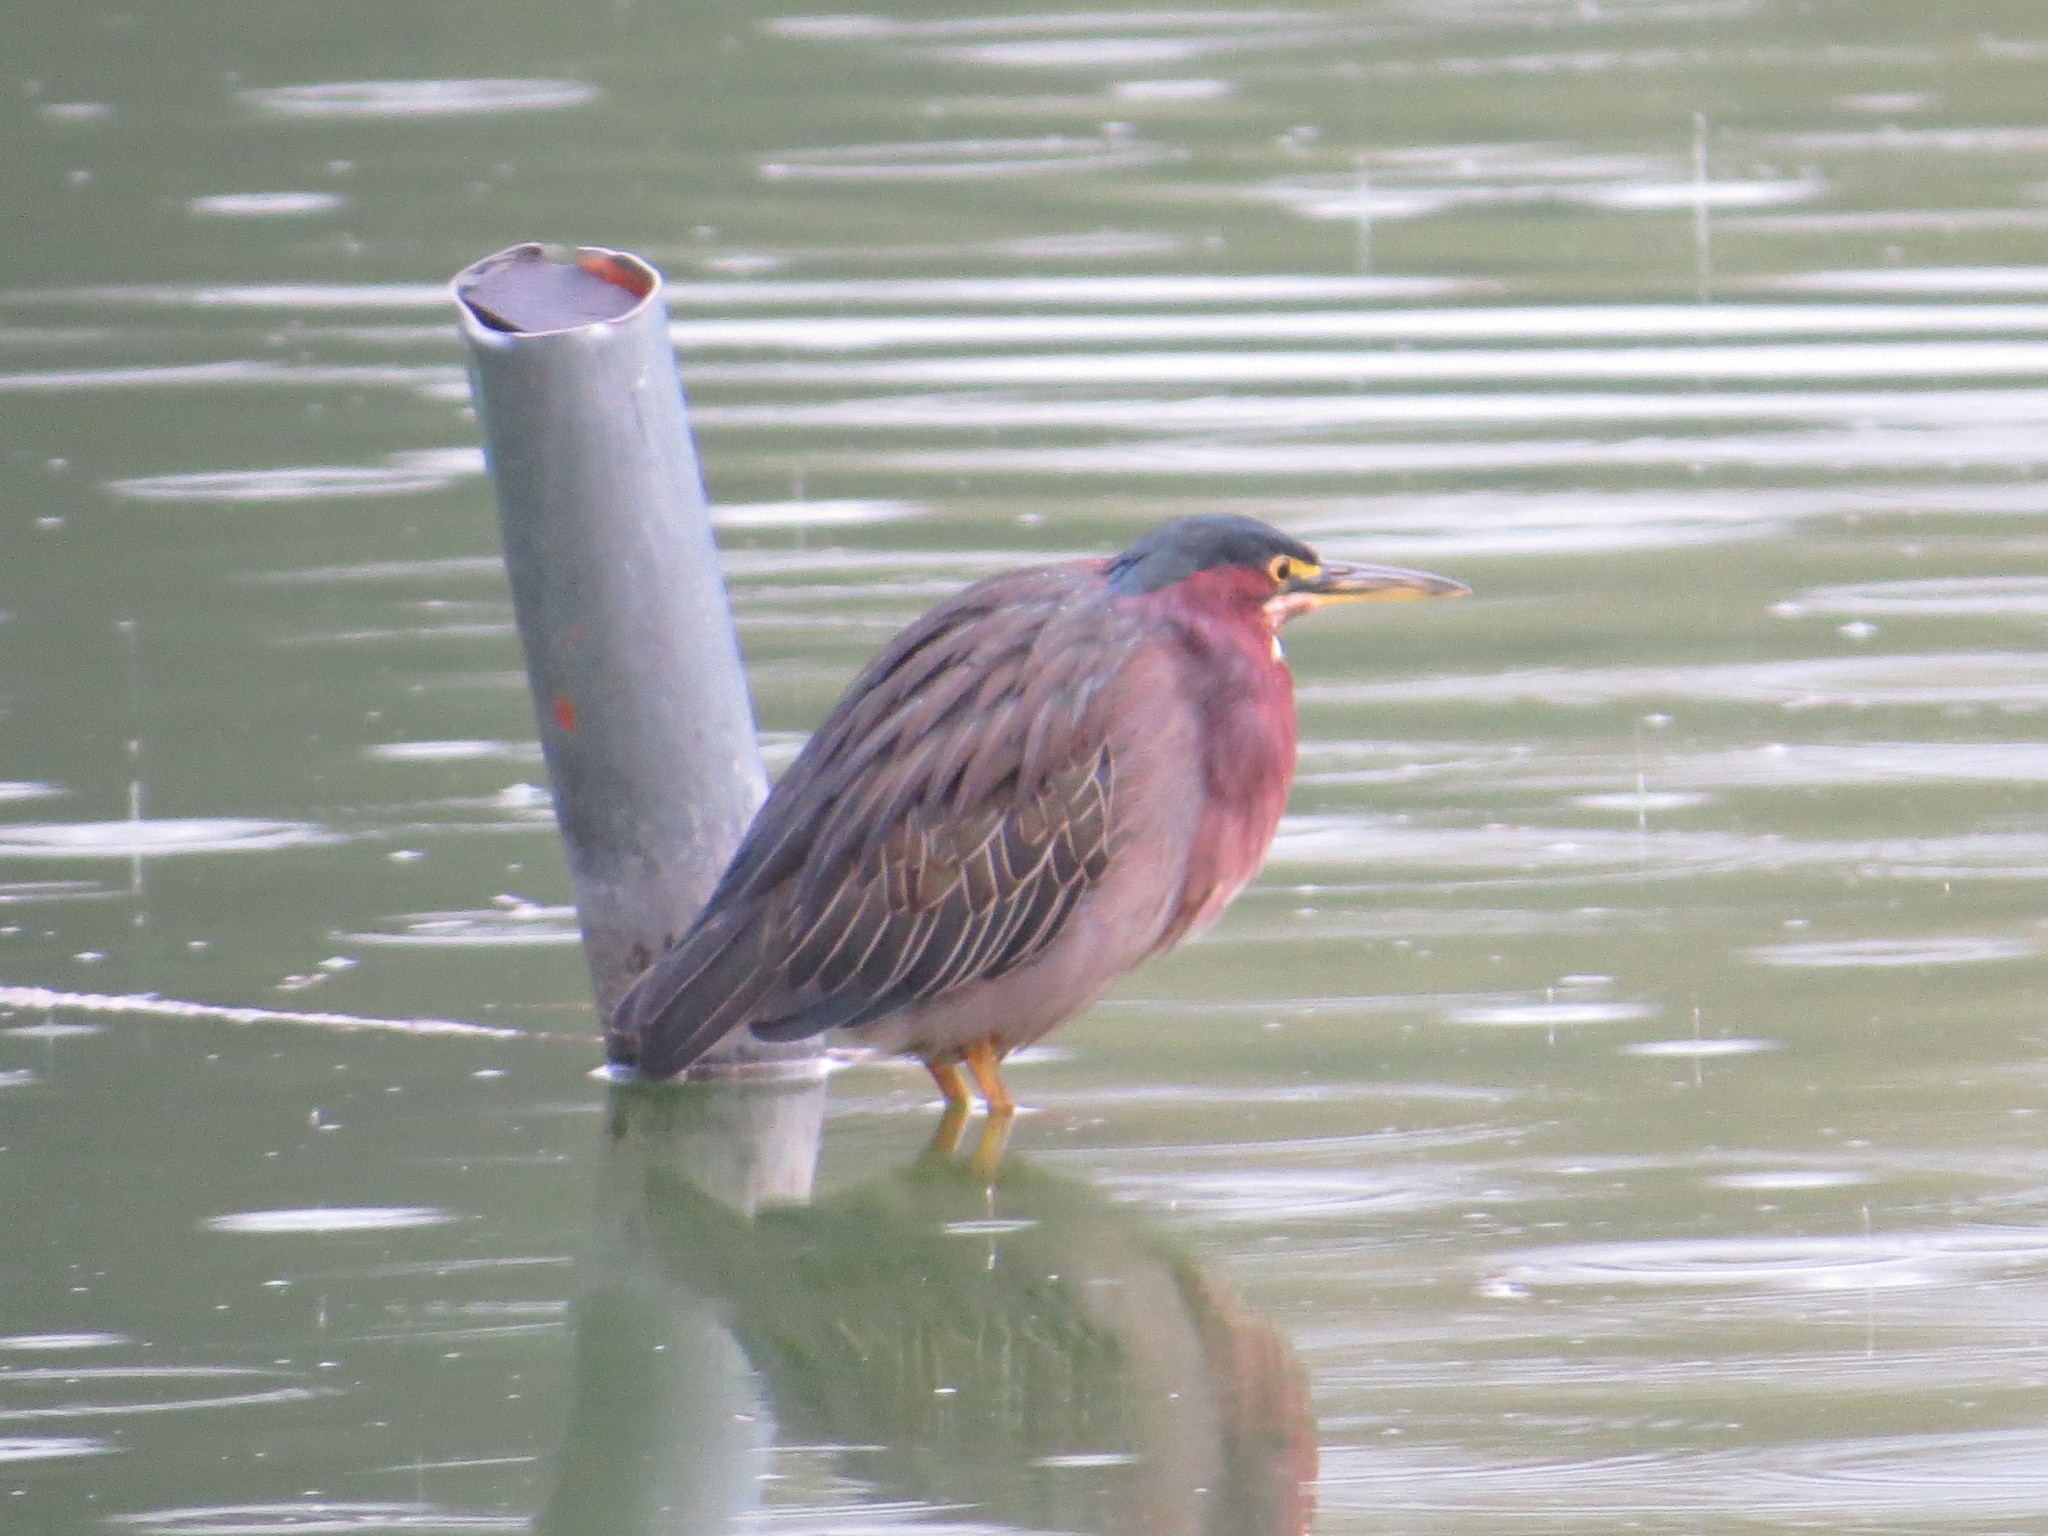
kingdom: Animalia
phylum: Chordata
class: Aves
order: Pelecaniformes
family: Ardeidae
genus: Butorides
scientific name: Butorides virescens
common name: Green heron
